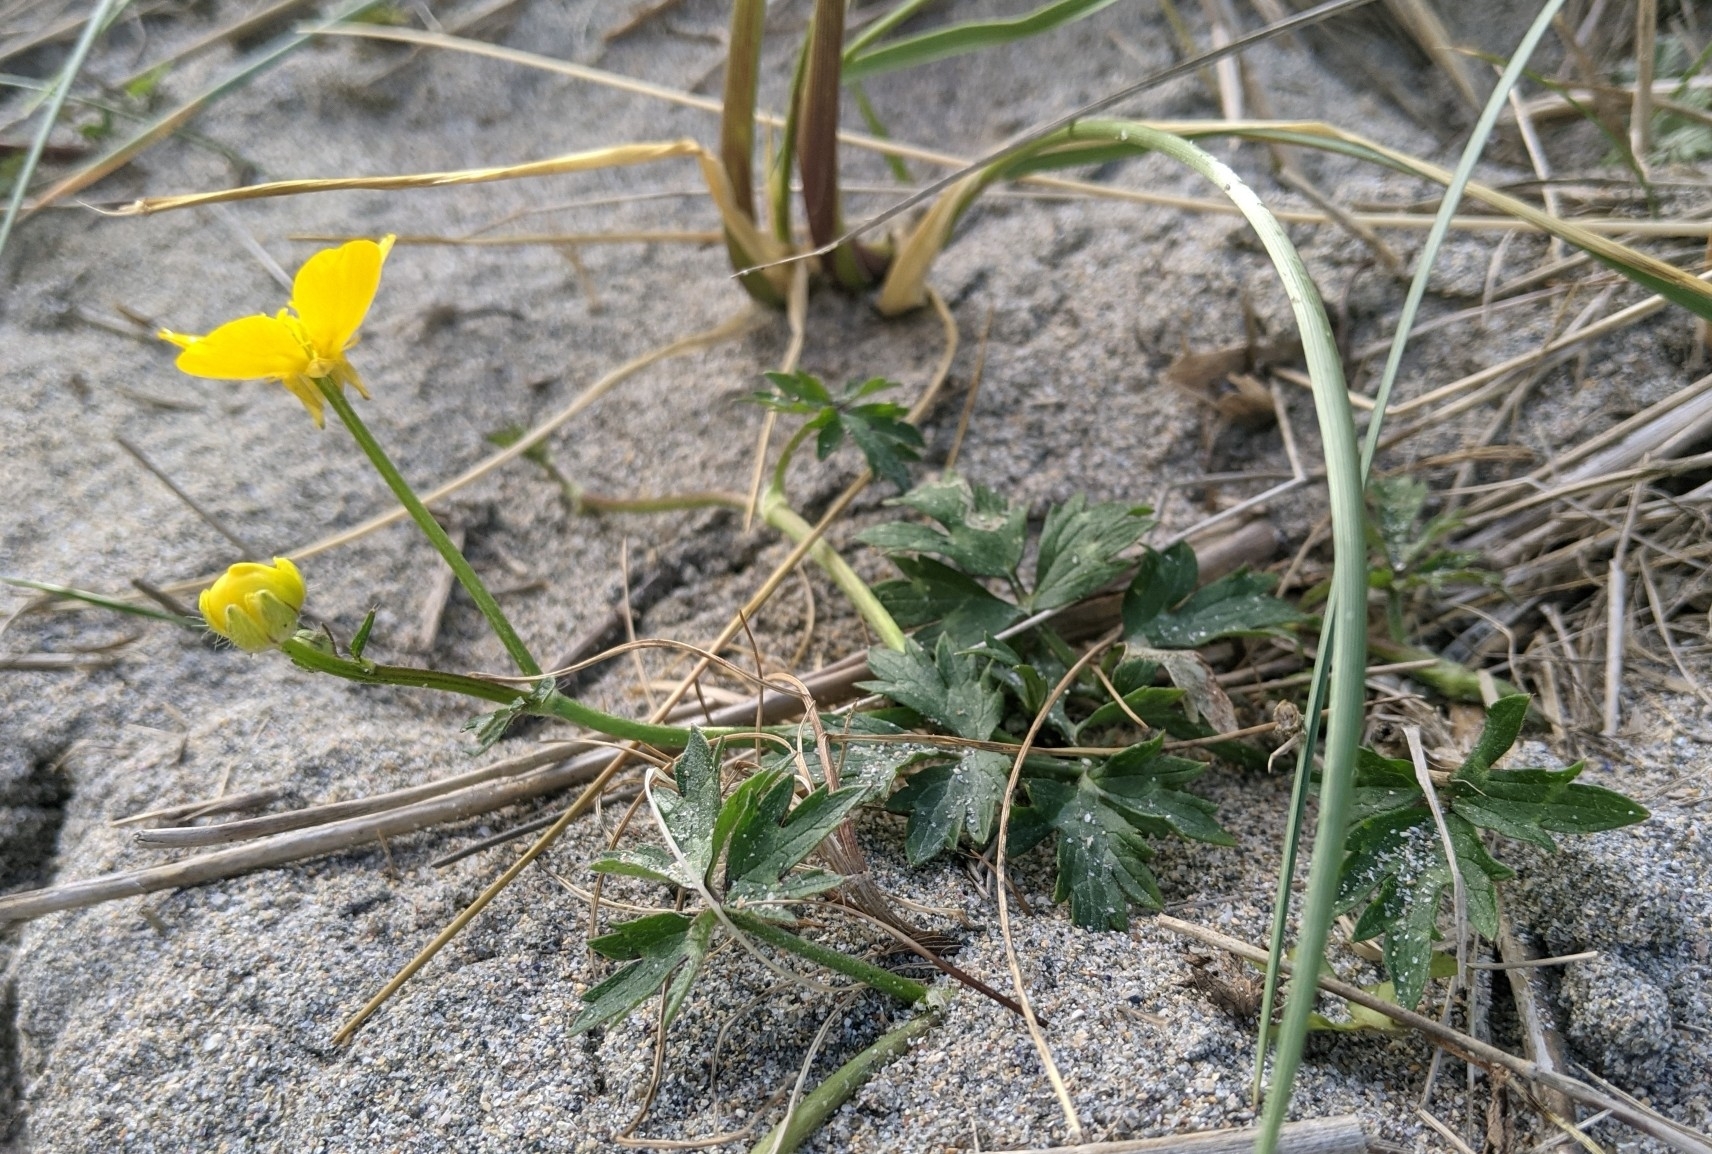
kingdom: Plantae
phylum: Tracheophyta
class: Magnoliopsida
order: Ranunculales
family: Ranunculaceae
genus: Ranunculus
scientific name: Ranunculus bulbosus
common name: Bulbous buttercup
